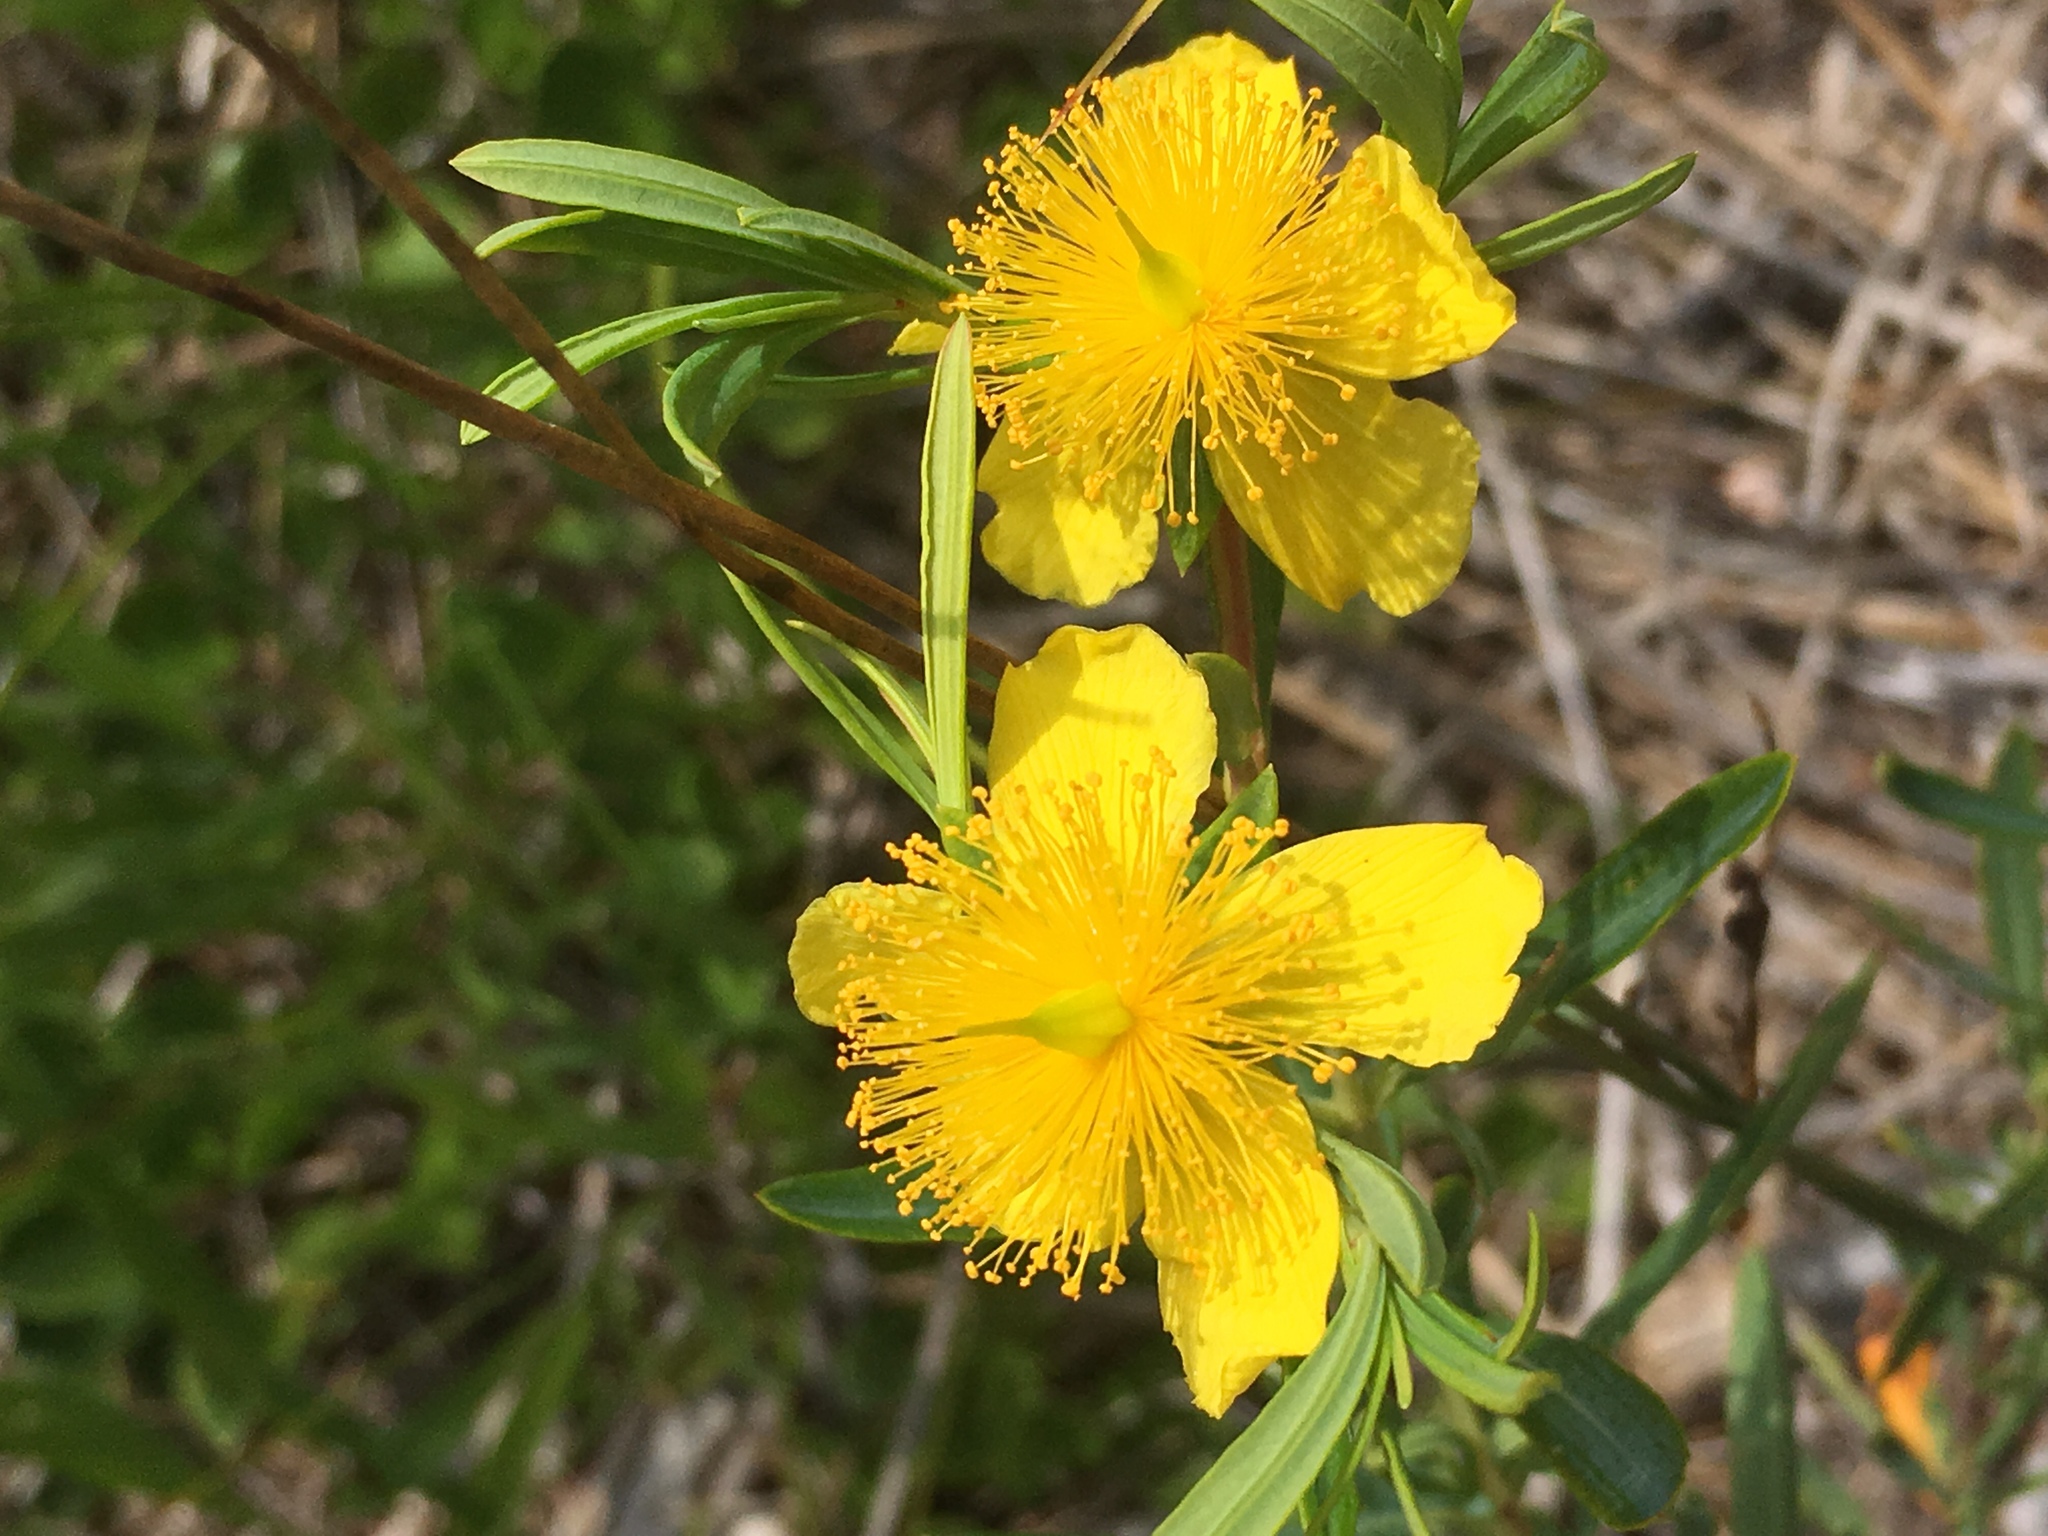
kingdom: Plantae
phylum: Tracheophyta
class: Magnoliopsida
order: Malpighiales
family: Hypericaceae
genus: Hypericum
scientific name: Hypericum kalmianum
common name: Kalm's st. john's-wort
